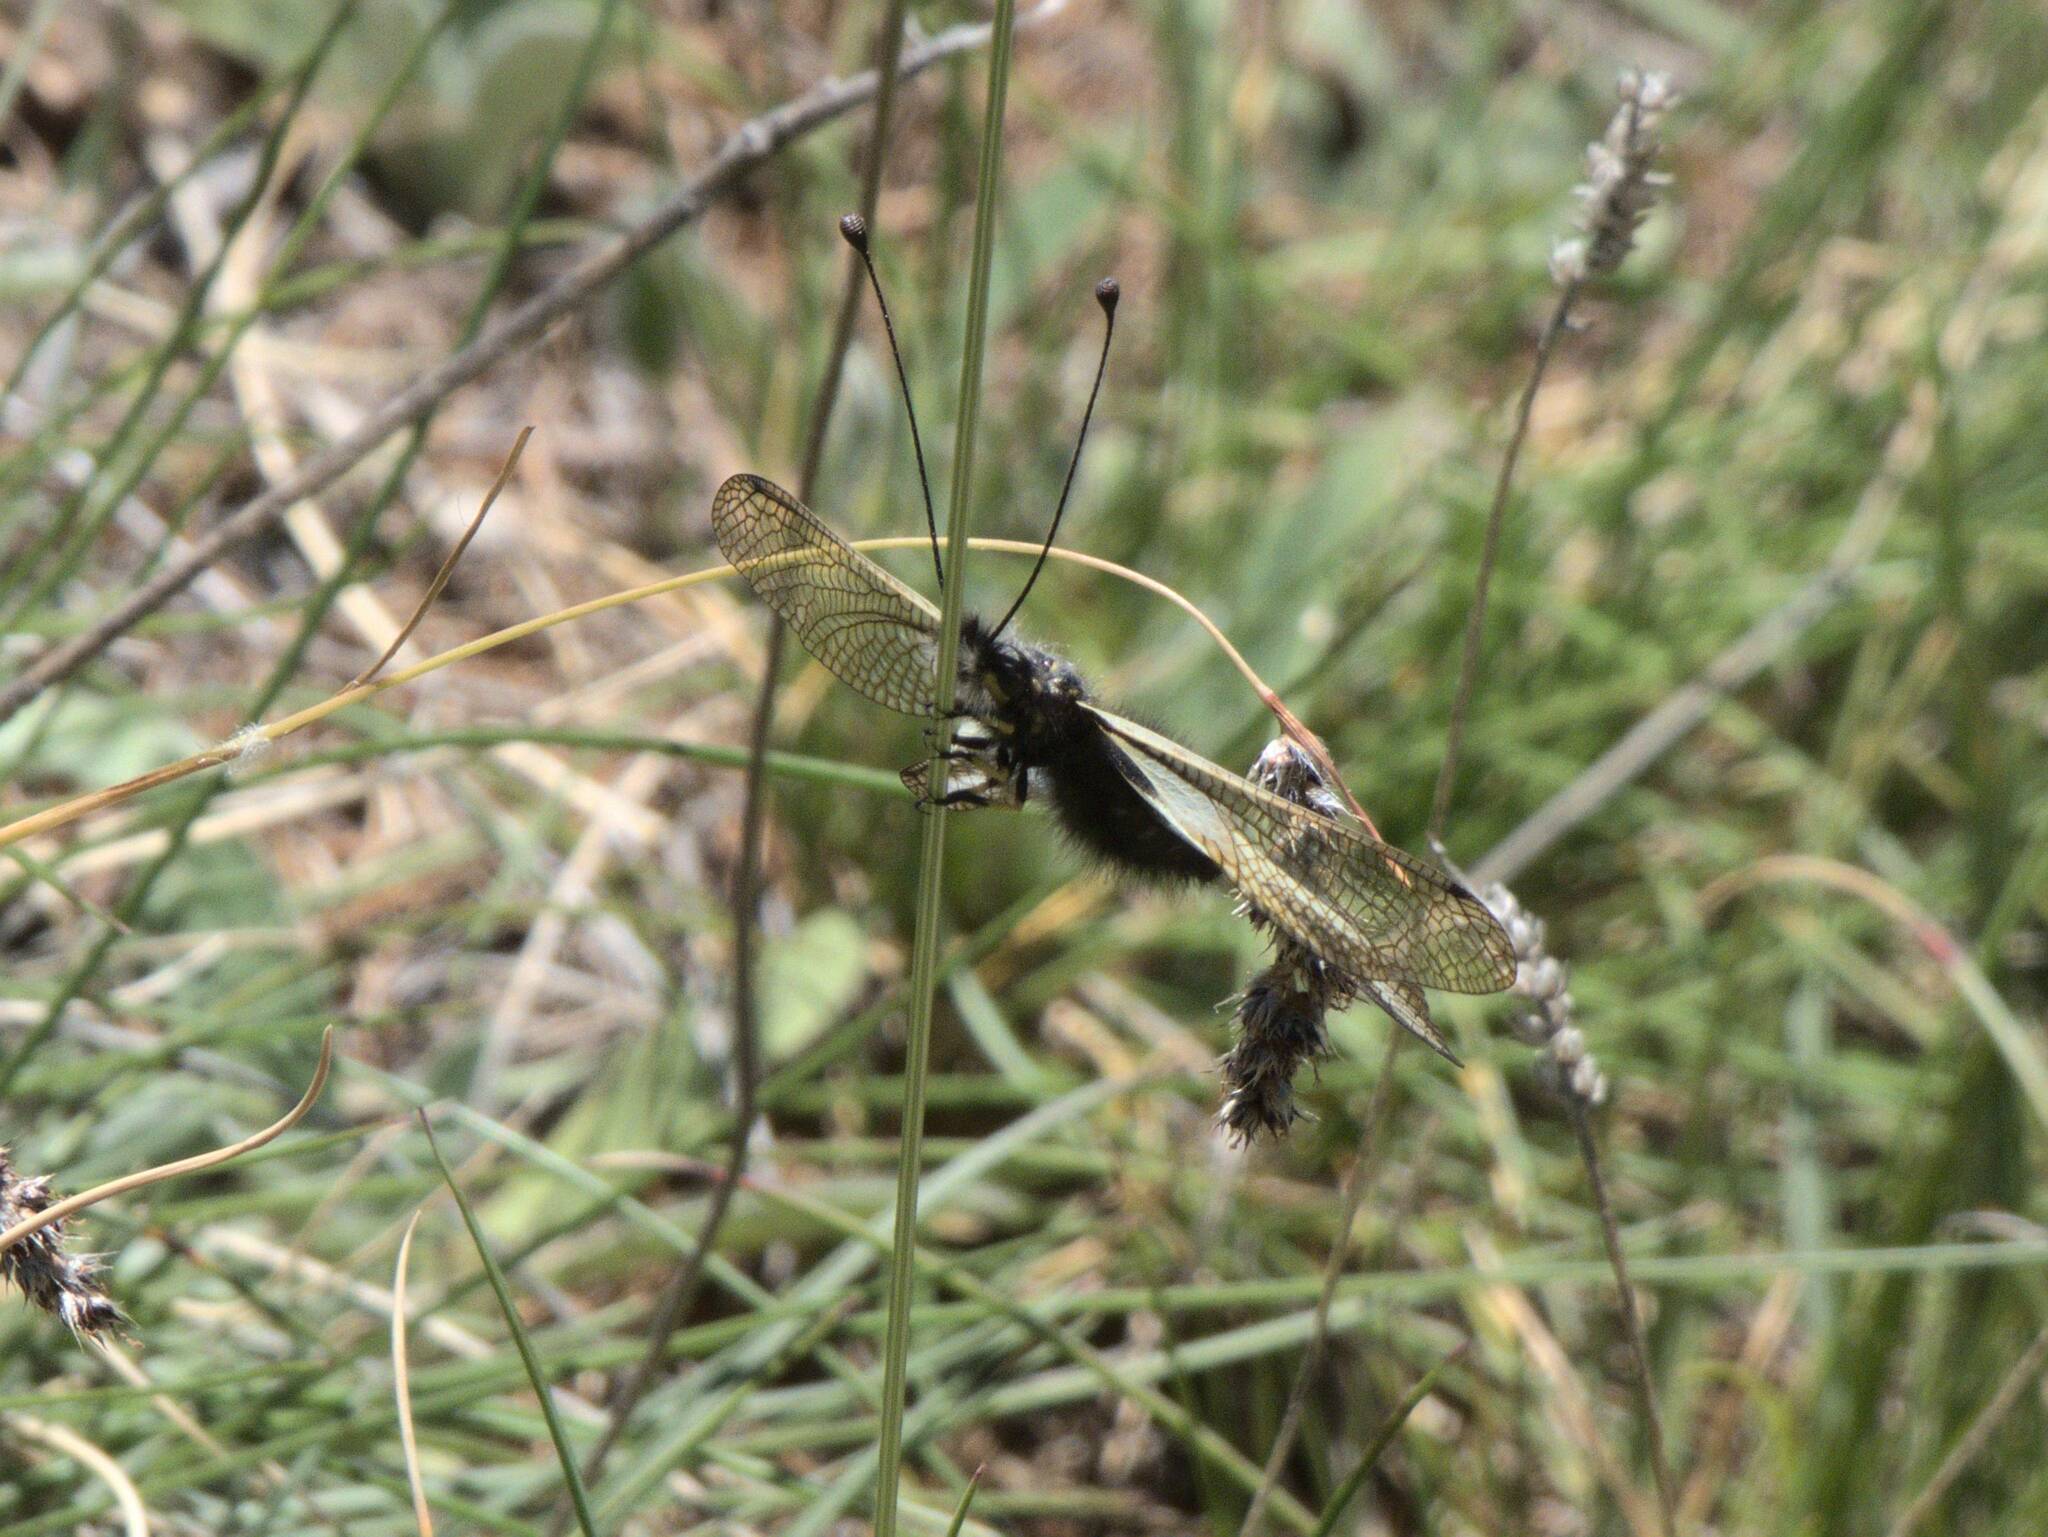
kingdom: Animalia
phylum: Arthropoda
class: Insecta
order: Neuroptera
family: Ascalaphidae
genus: Libelloides
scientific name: Libelloides coccajus
